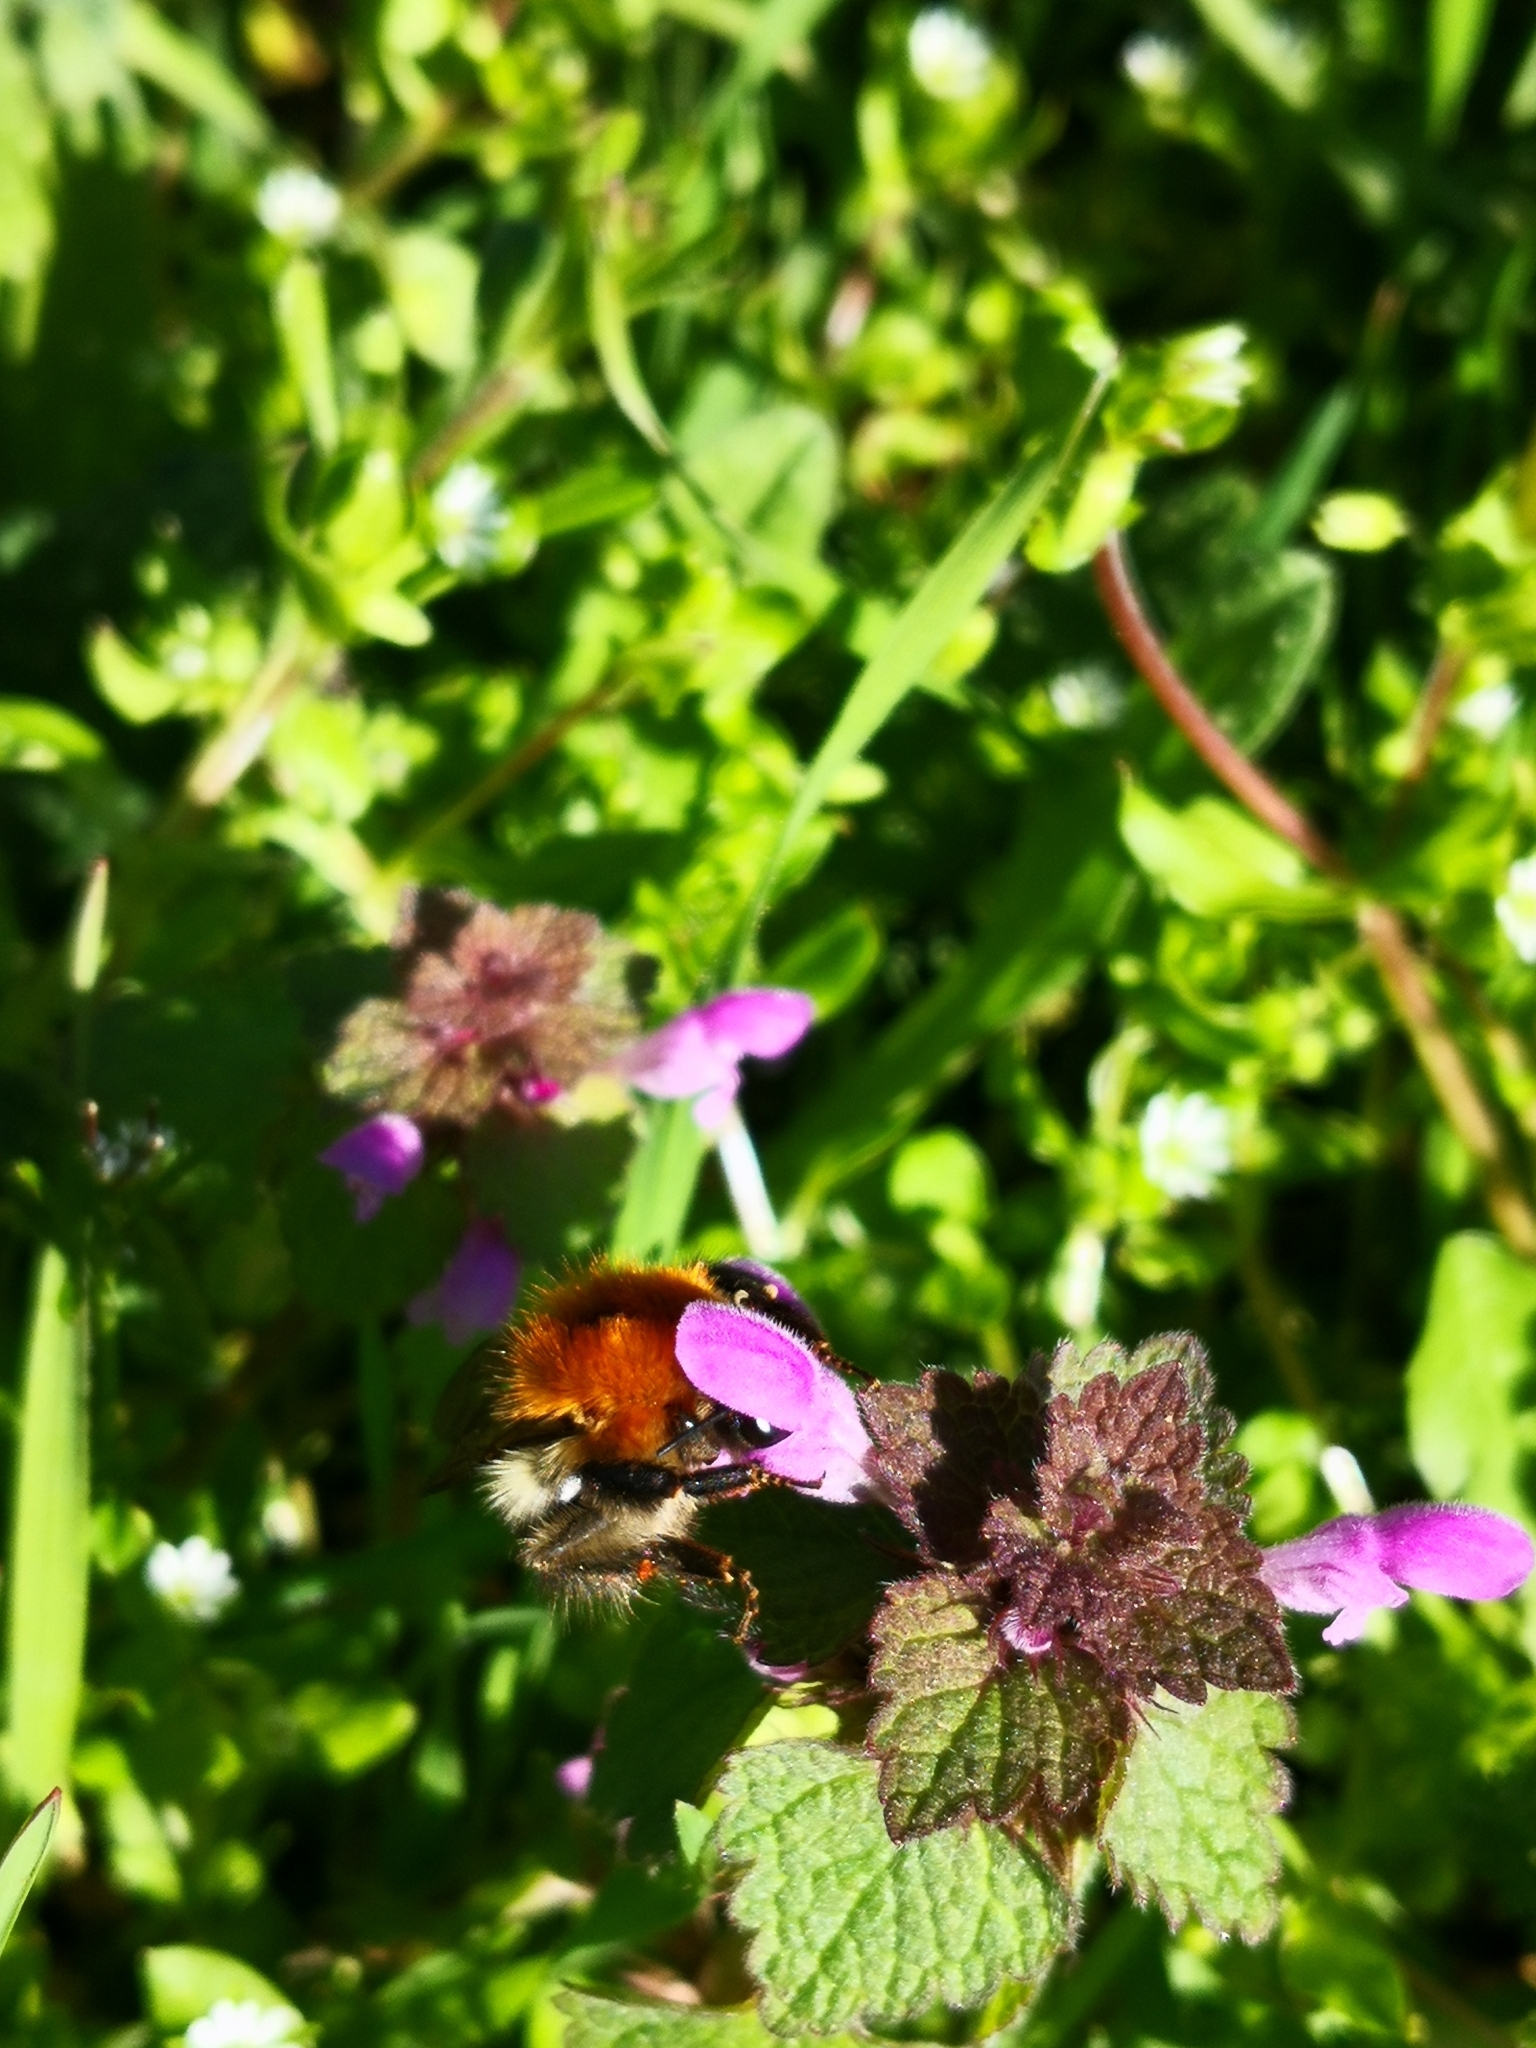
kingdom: Animalia
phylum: Arthropoda
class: Insecta
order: Hymenoptera
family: Apidae
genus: Bombus
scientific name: Bombus pascuorum
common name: Common carder bee
